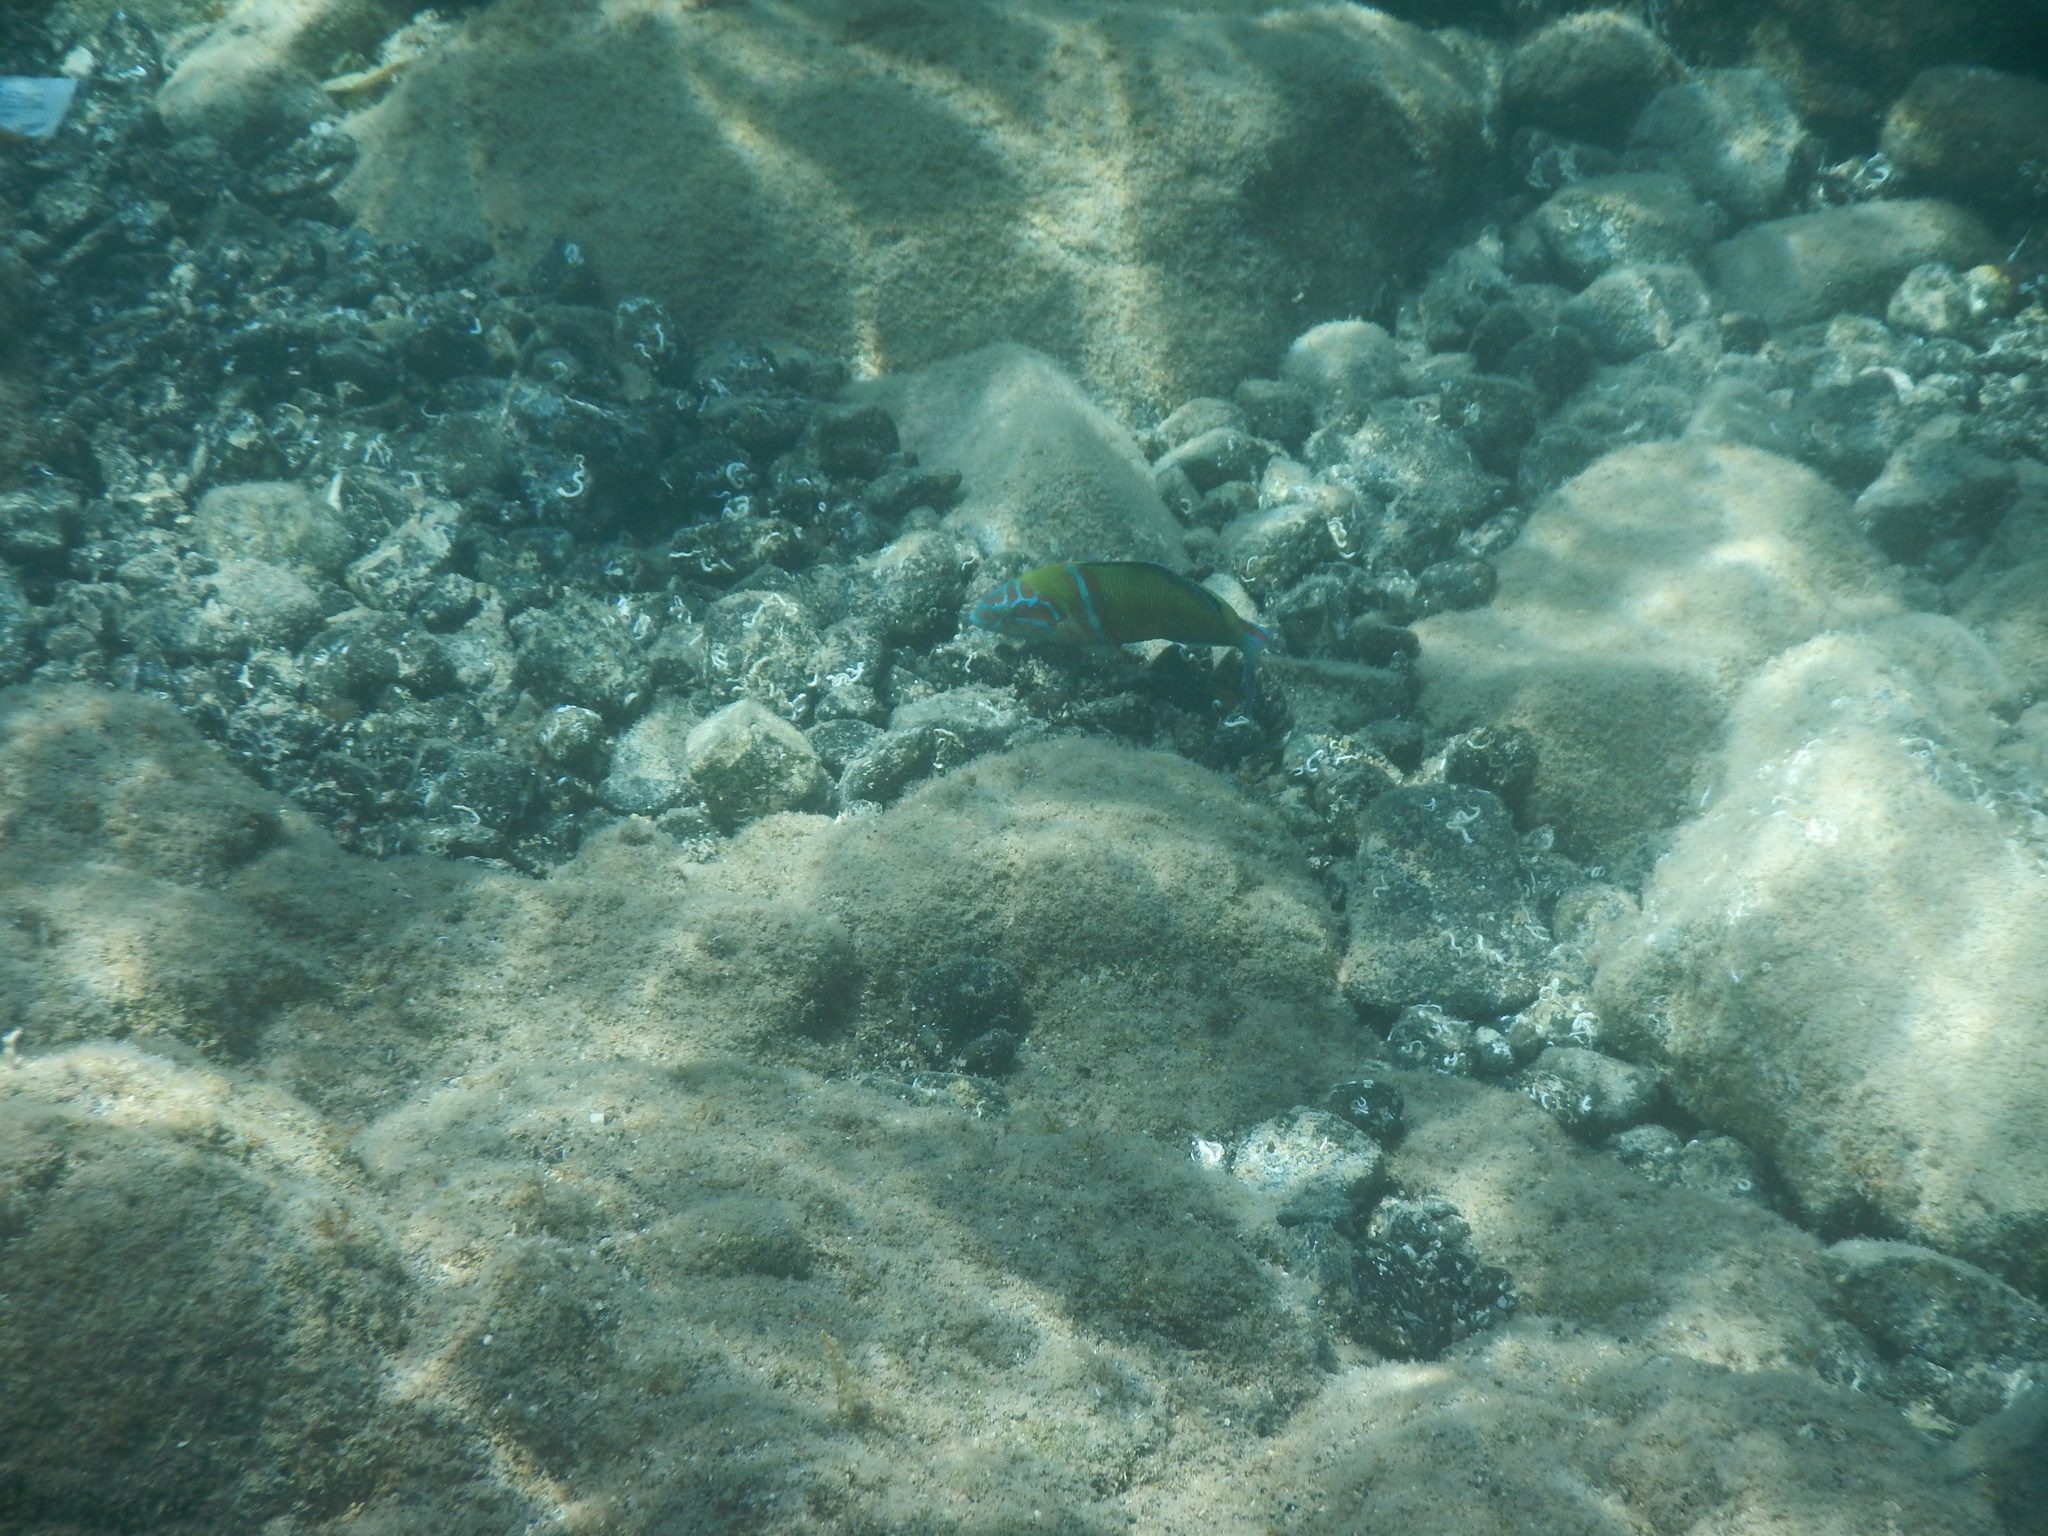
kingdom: Animalia
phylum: Chordata
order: Perciformes
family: Labridae
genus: Thalassoma
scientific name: Thalassoma pavo
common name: Ornate wrasse
